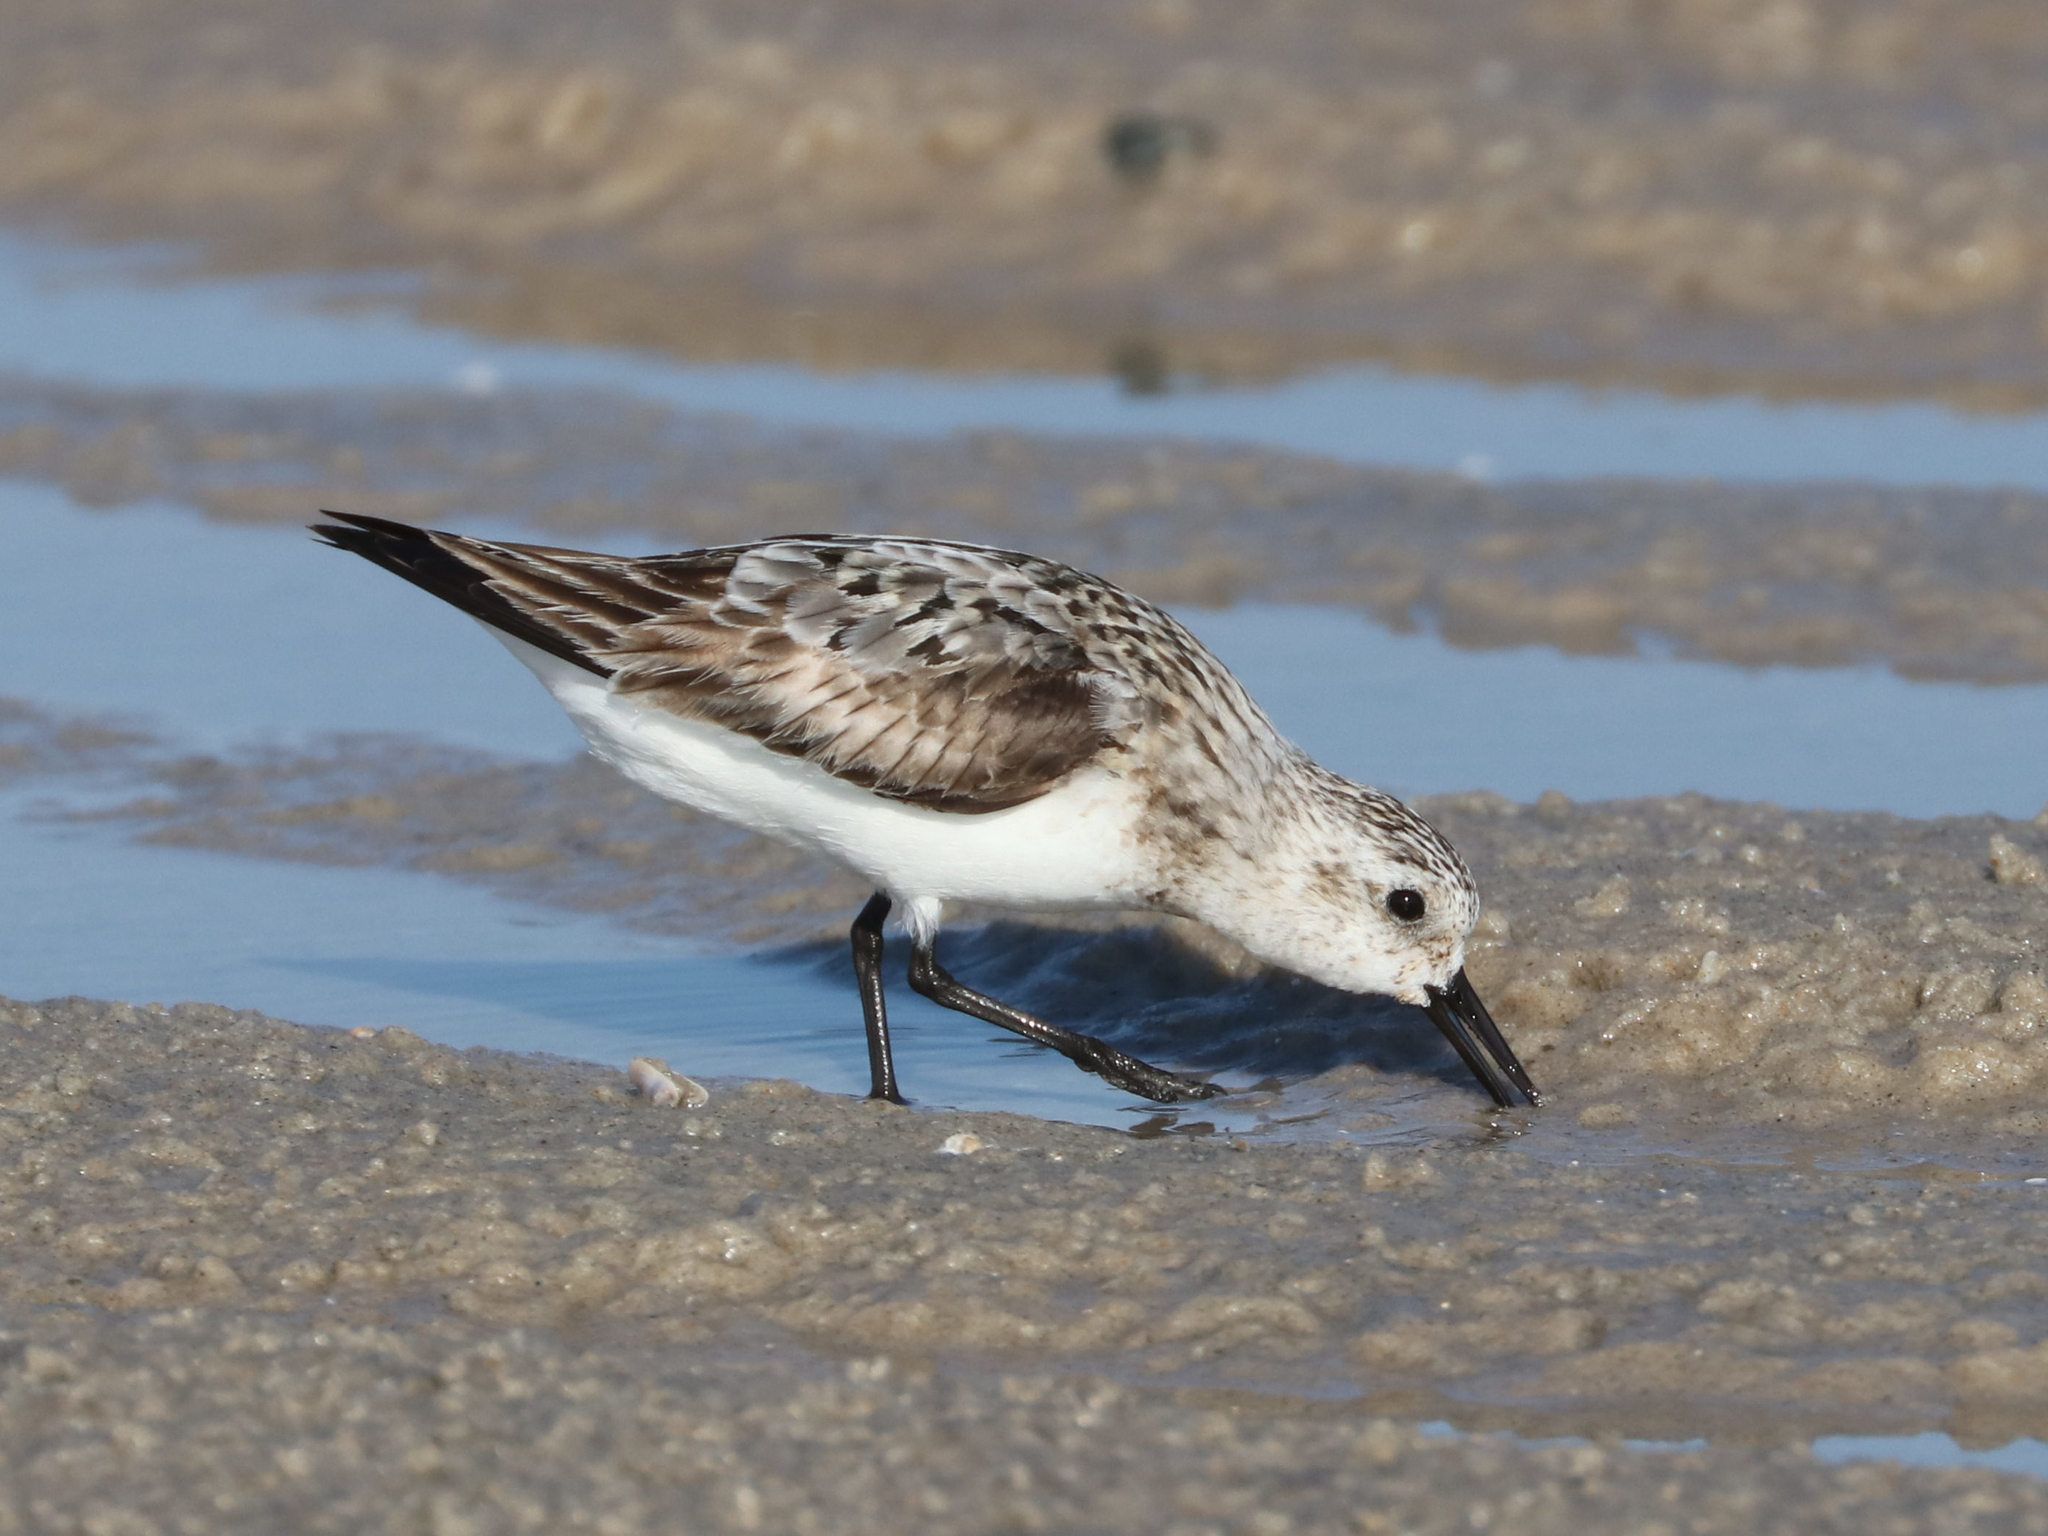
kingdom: Animalia
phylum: Chordata
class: Aves
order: Charadriiformes
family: Scolopacidae
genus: Calidris
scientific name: Calidris alba
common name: Sanderling
